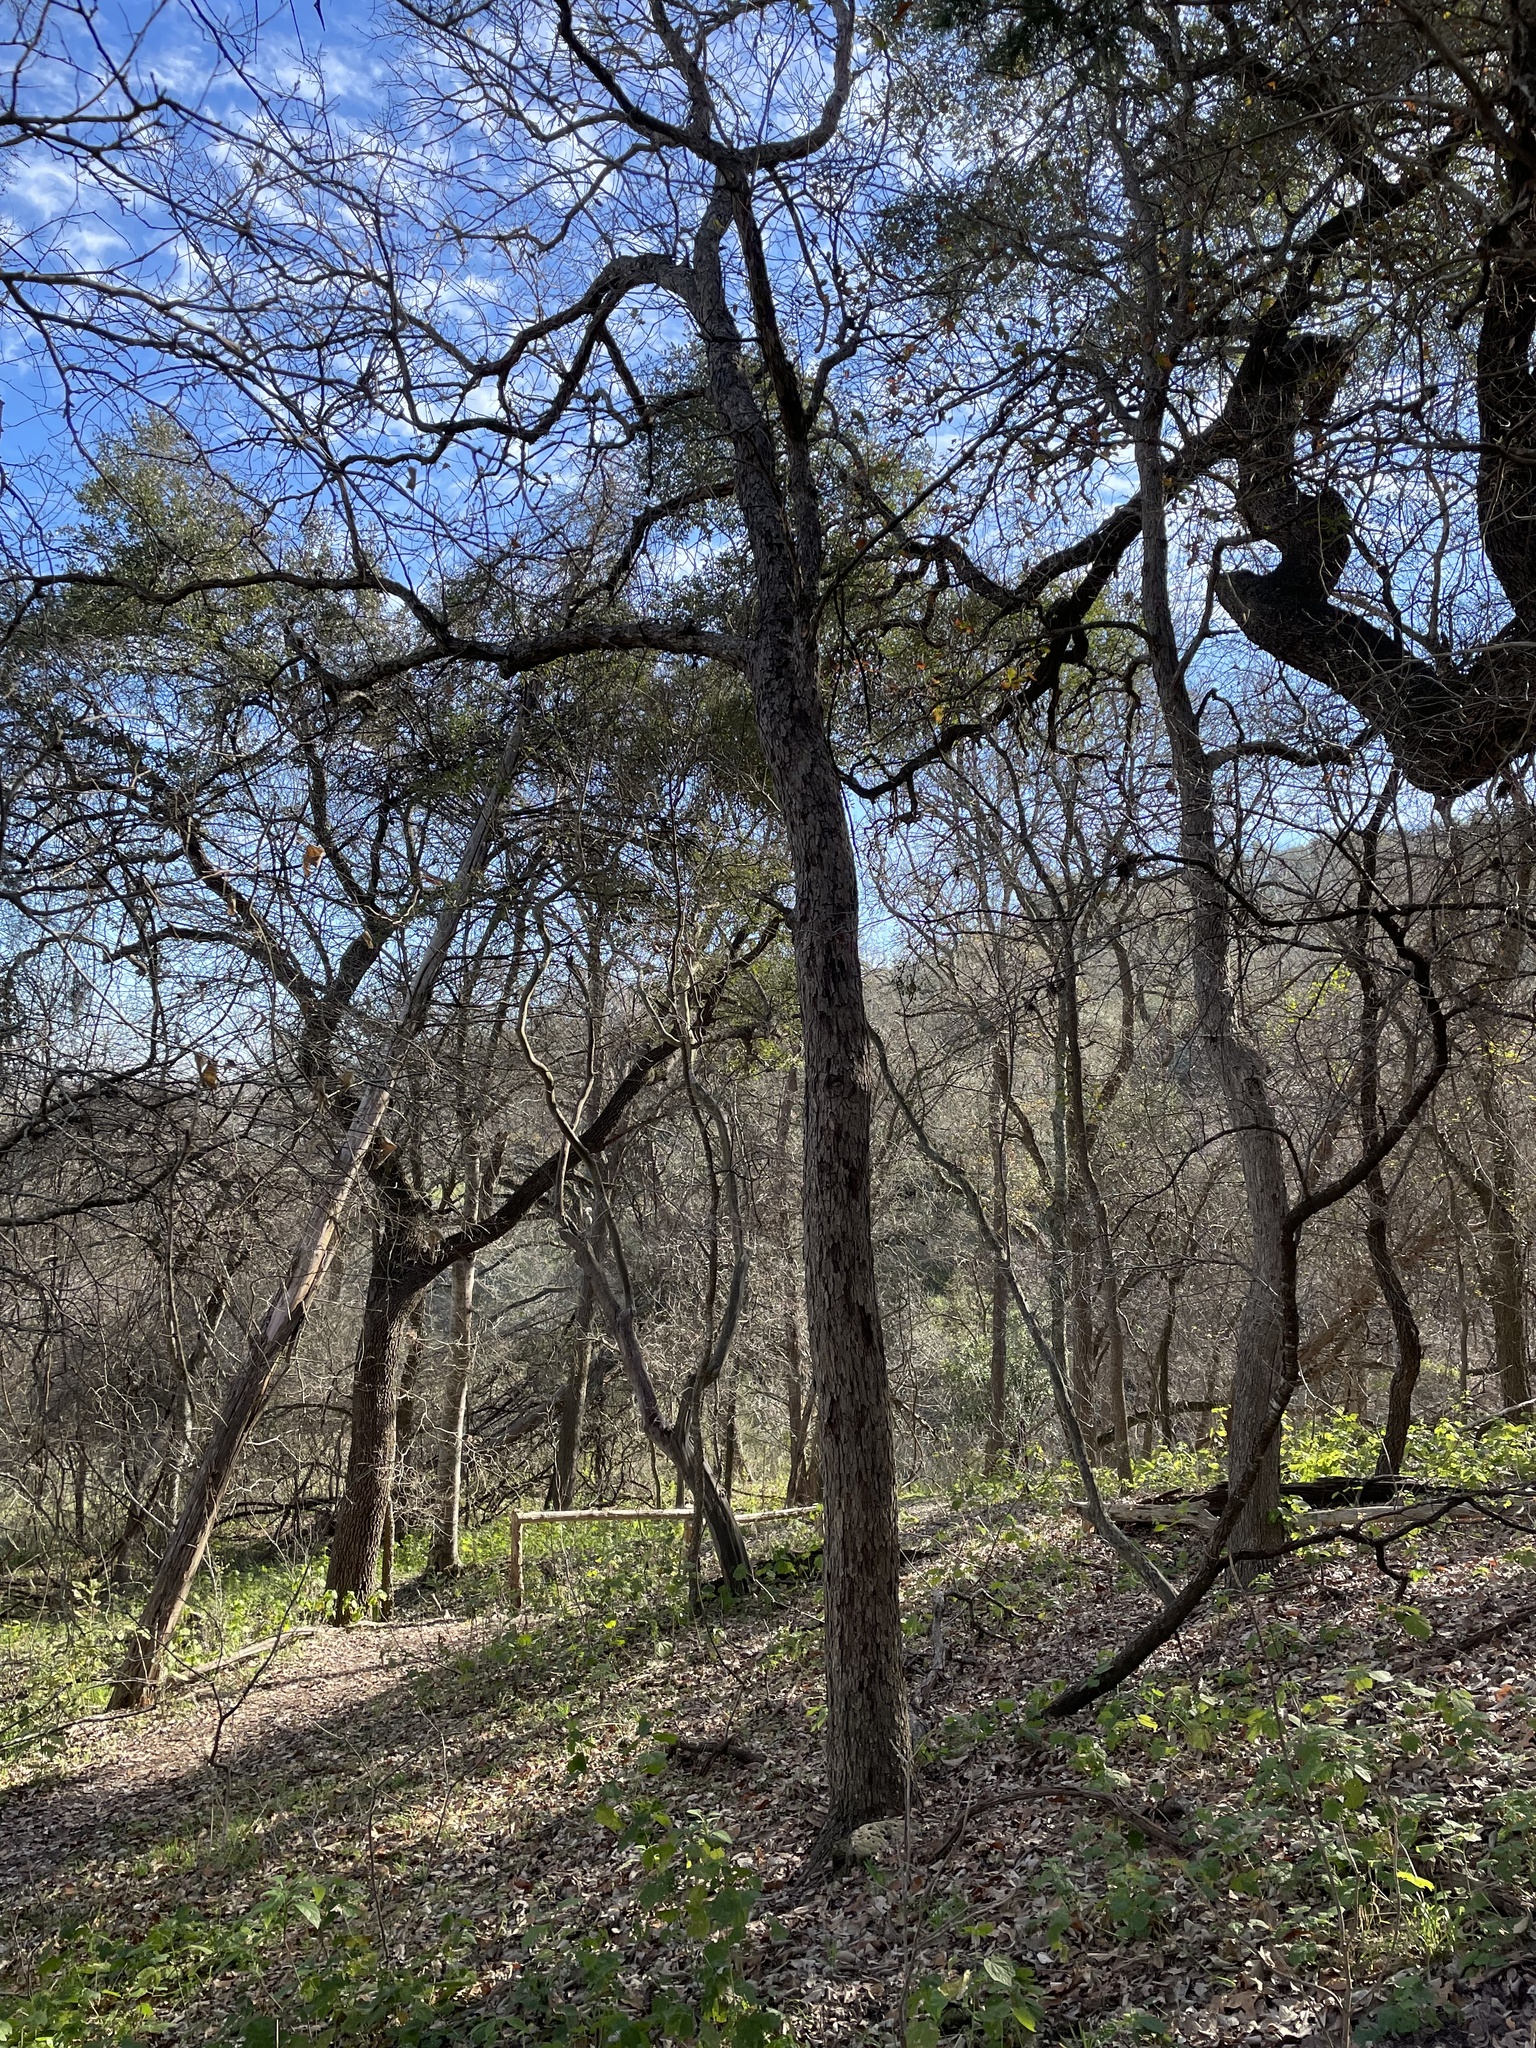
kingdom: Plantae
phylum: Tracheophyta
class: Magnoliopsida
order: Fagales
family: Fagaceae
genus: Quercus
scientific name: Quercus sinuata
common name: Durand oak
